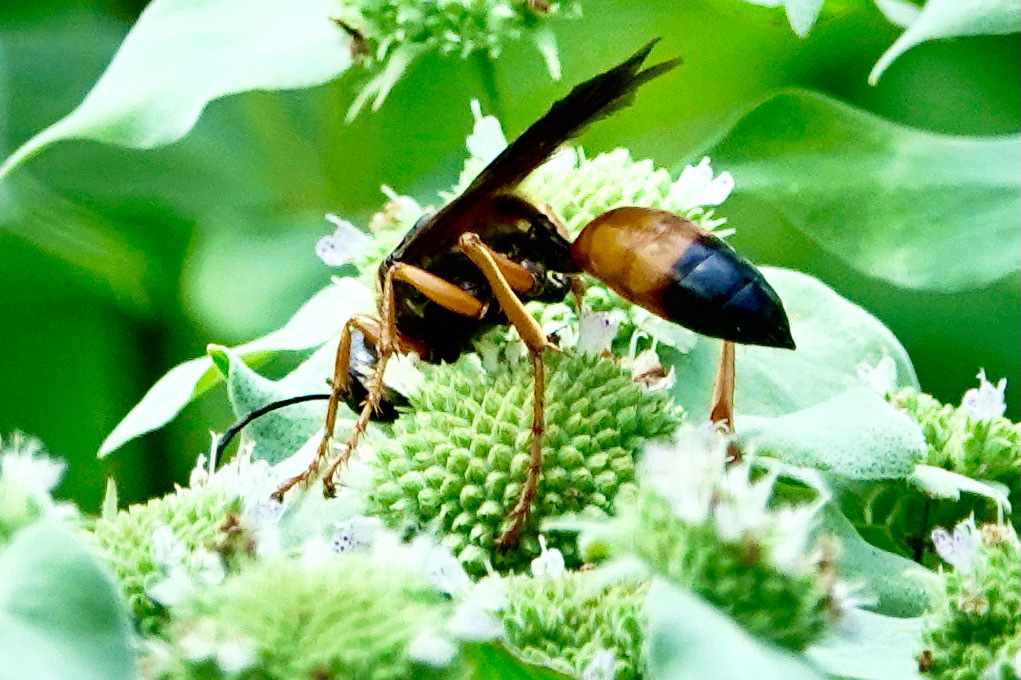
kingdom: Animalia
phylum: Arthropoda
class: Insecta
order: Hymenoptera
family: Sphecidae
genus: Sphex
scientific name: Sphex ichneumoneus
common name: Great golden digger wasp
